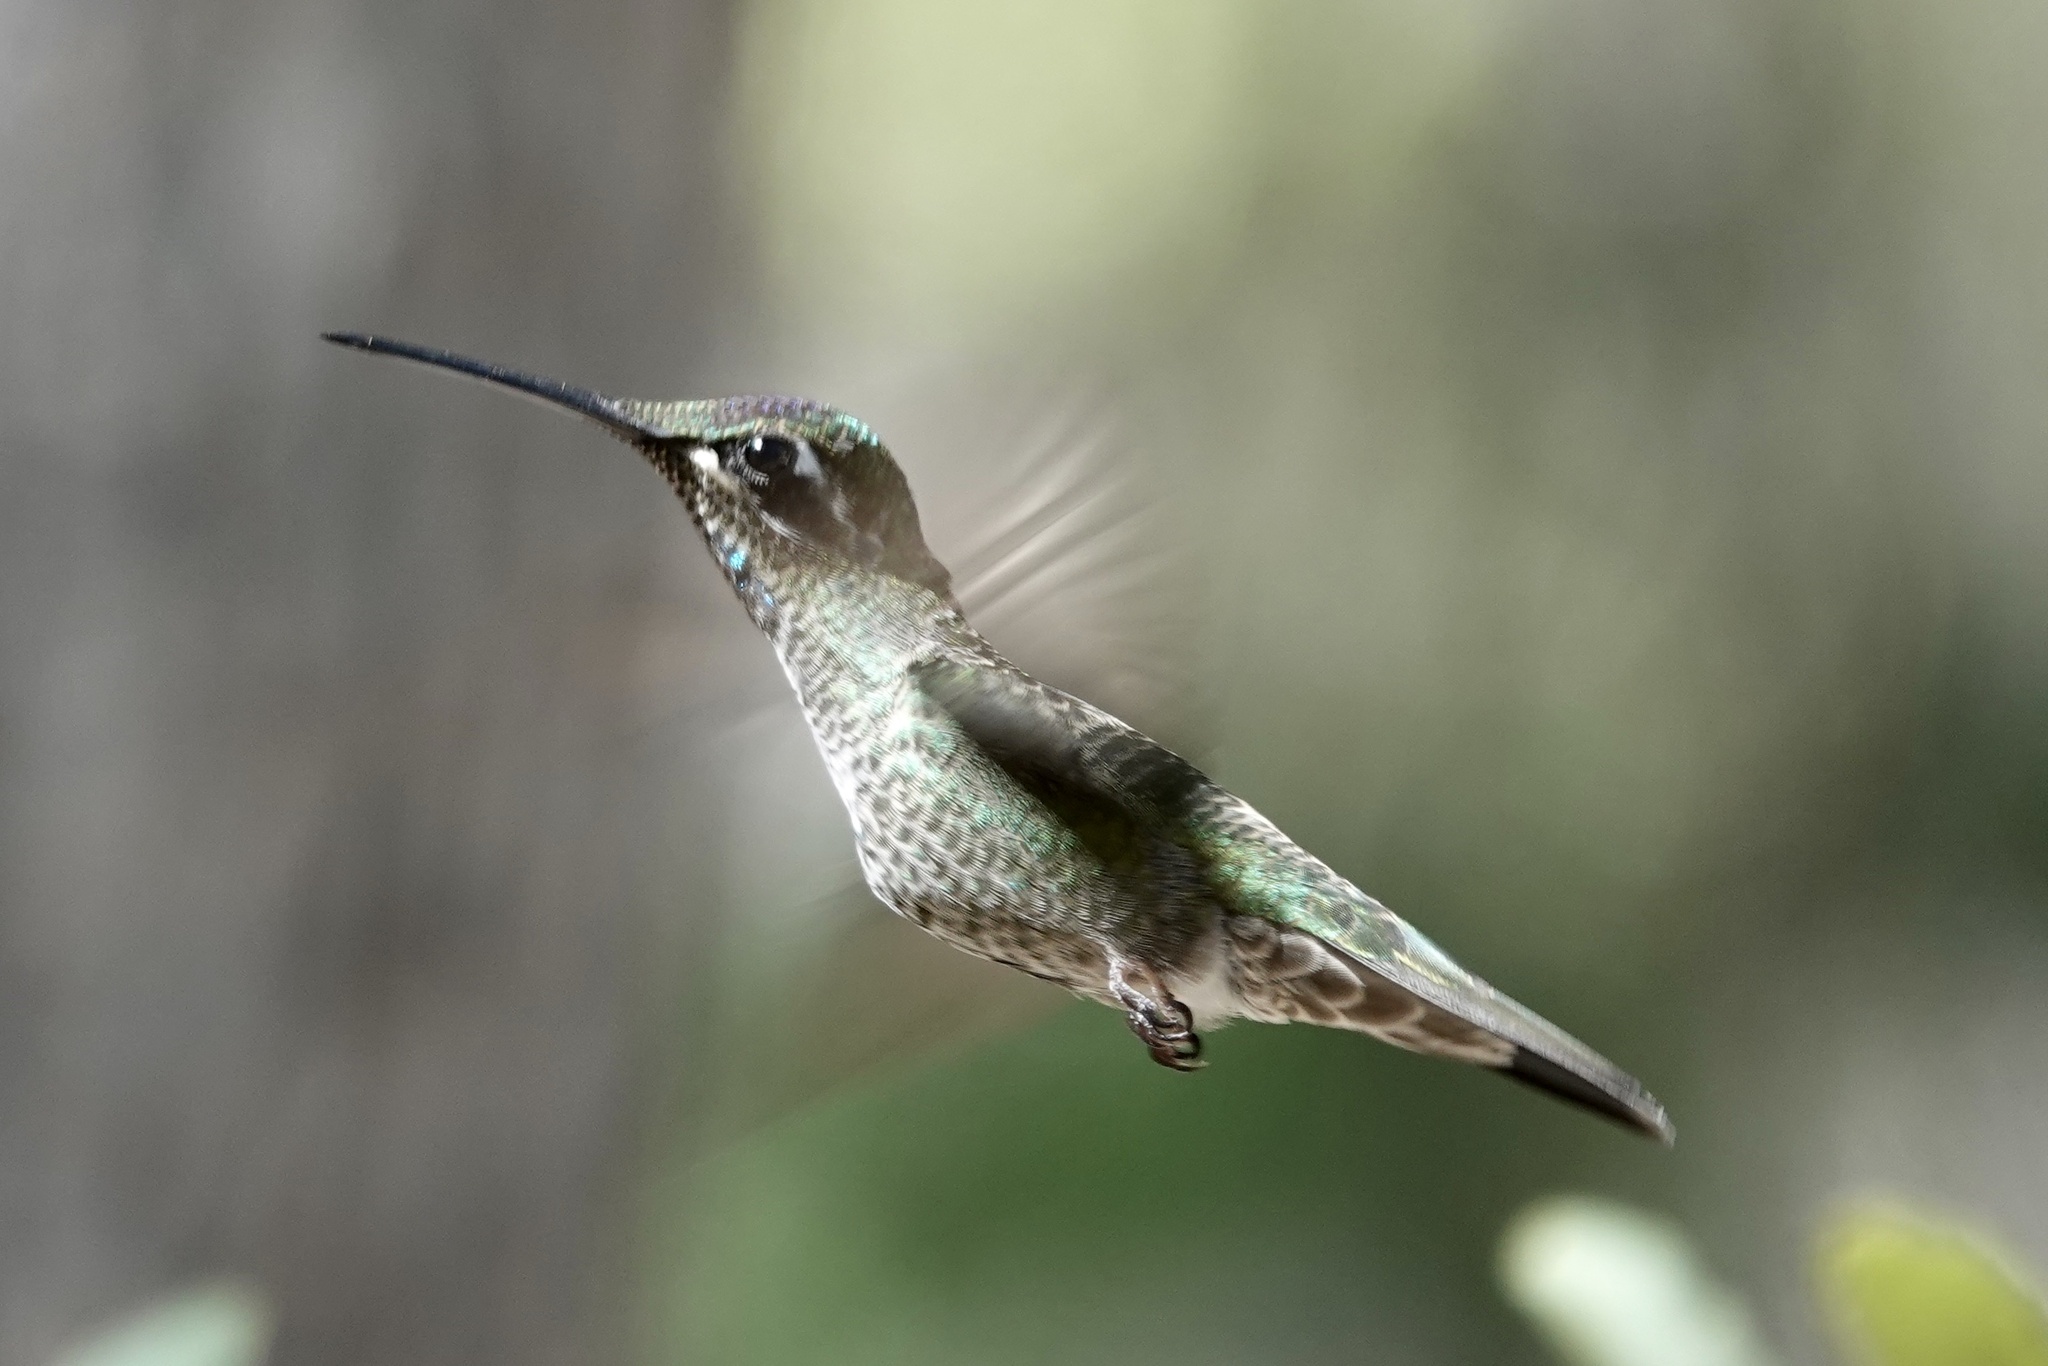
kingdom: Animalia
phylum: Chordata
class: Aves
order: Apodiformes
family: Trochilidae
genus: Eugenes
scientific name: Eugenes fulgens
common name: Magnificent hummingbird
